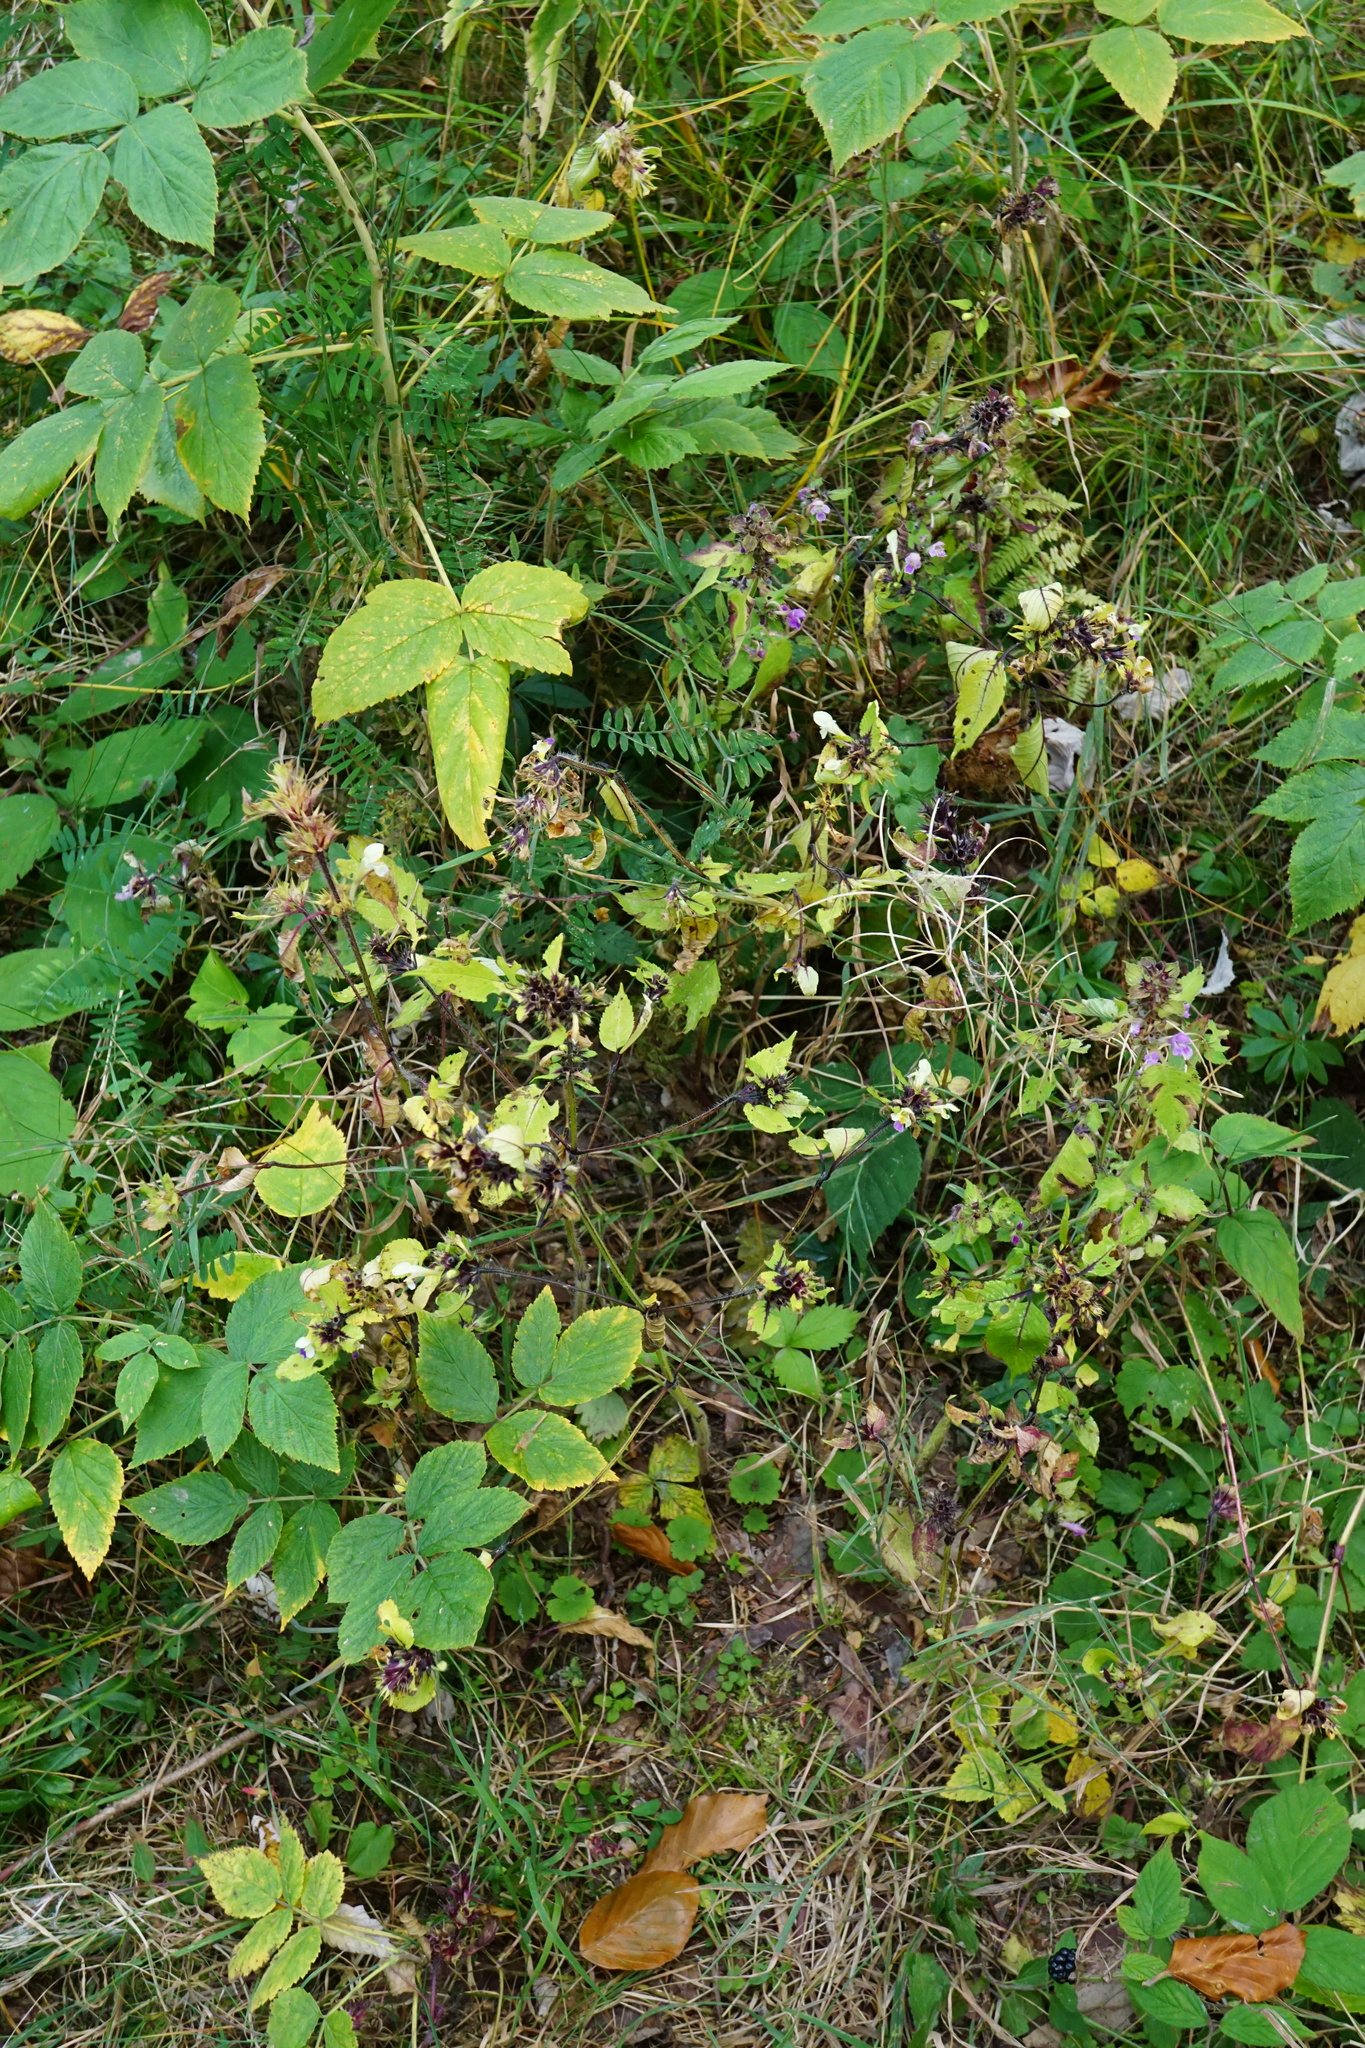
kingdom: Plantae
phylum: Tracheophyta
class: Magnoliopsida
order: Lamiales
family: Lamiaceae
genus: Galeopsis
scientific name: Galeopsis speciosa
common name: Large-flowered hemp-nettle
